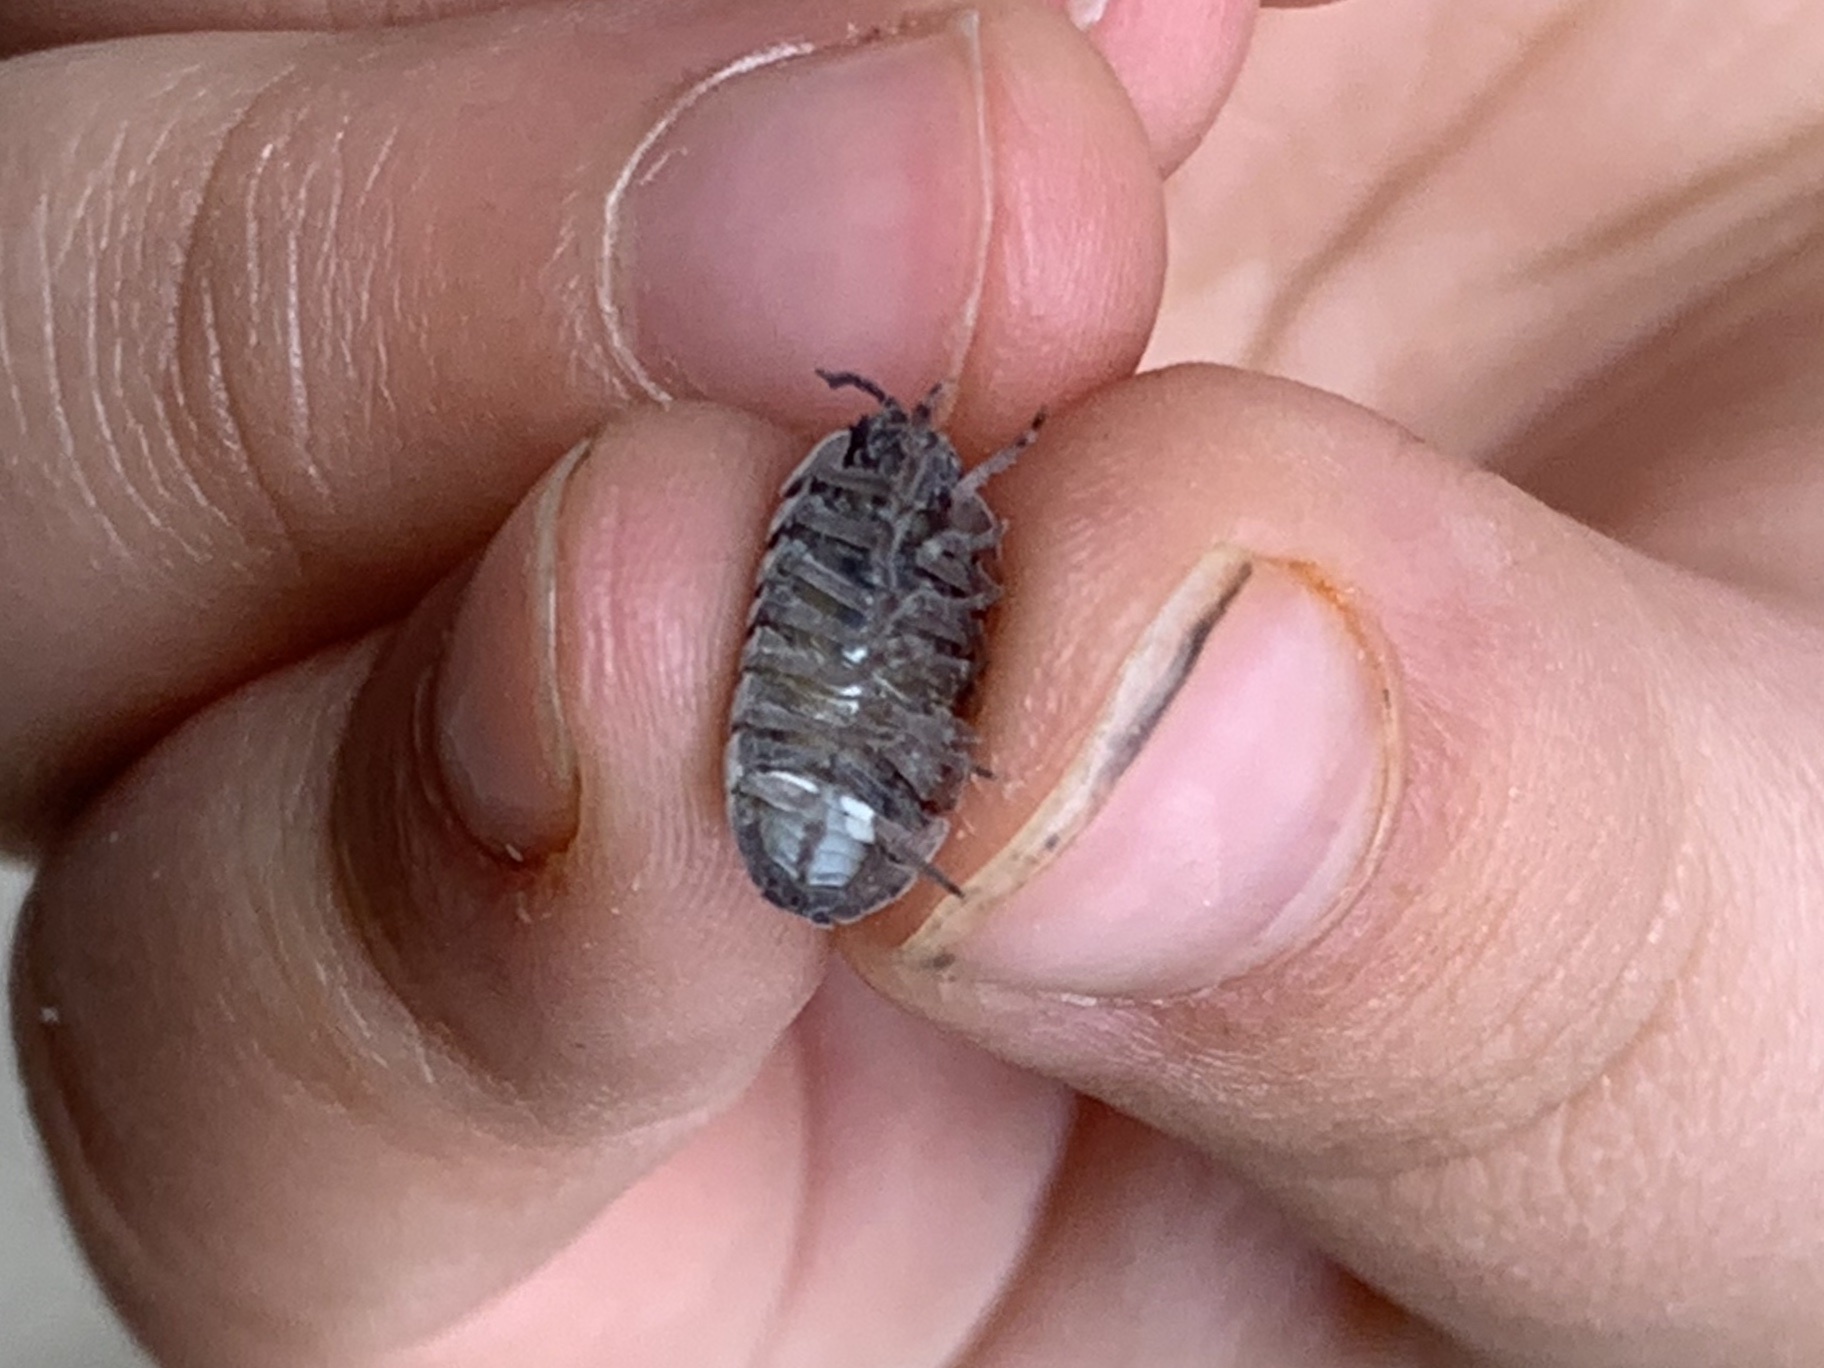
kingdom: Animalia
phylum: Arthropoda
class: Malacostraca
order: Isopoda
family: Armadillidiidae
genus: Armadillidium
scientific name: Armadillidium vulgare
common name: Common pill woodlouse
